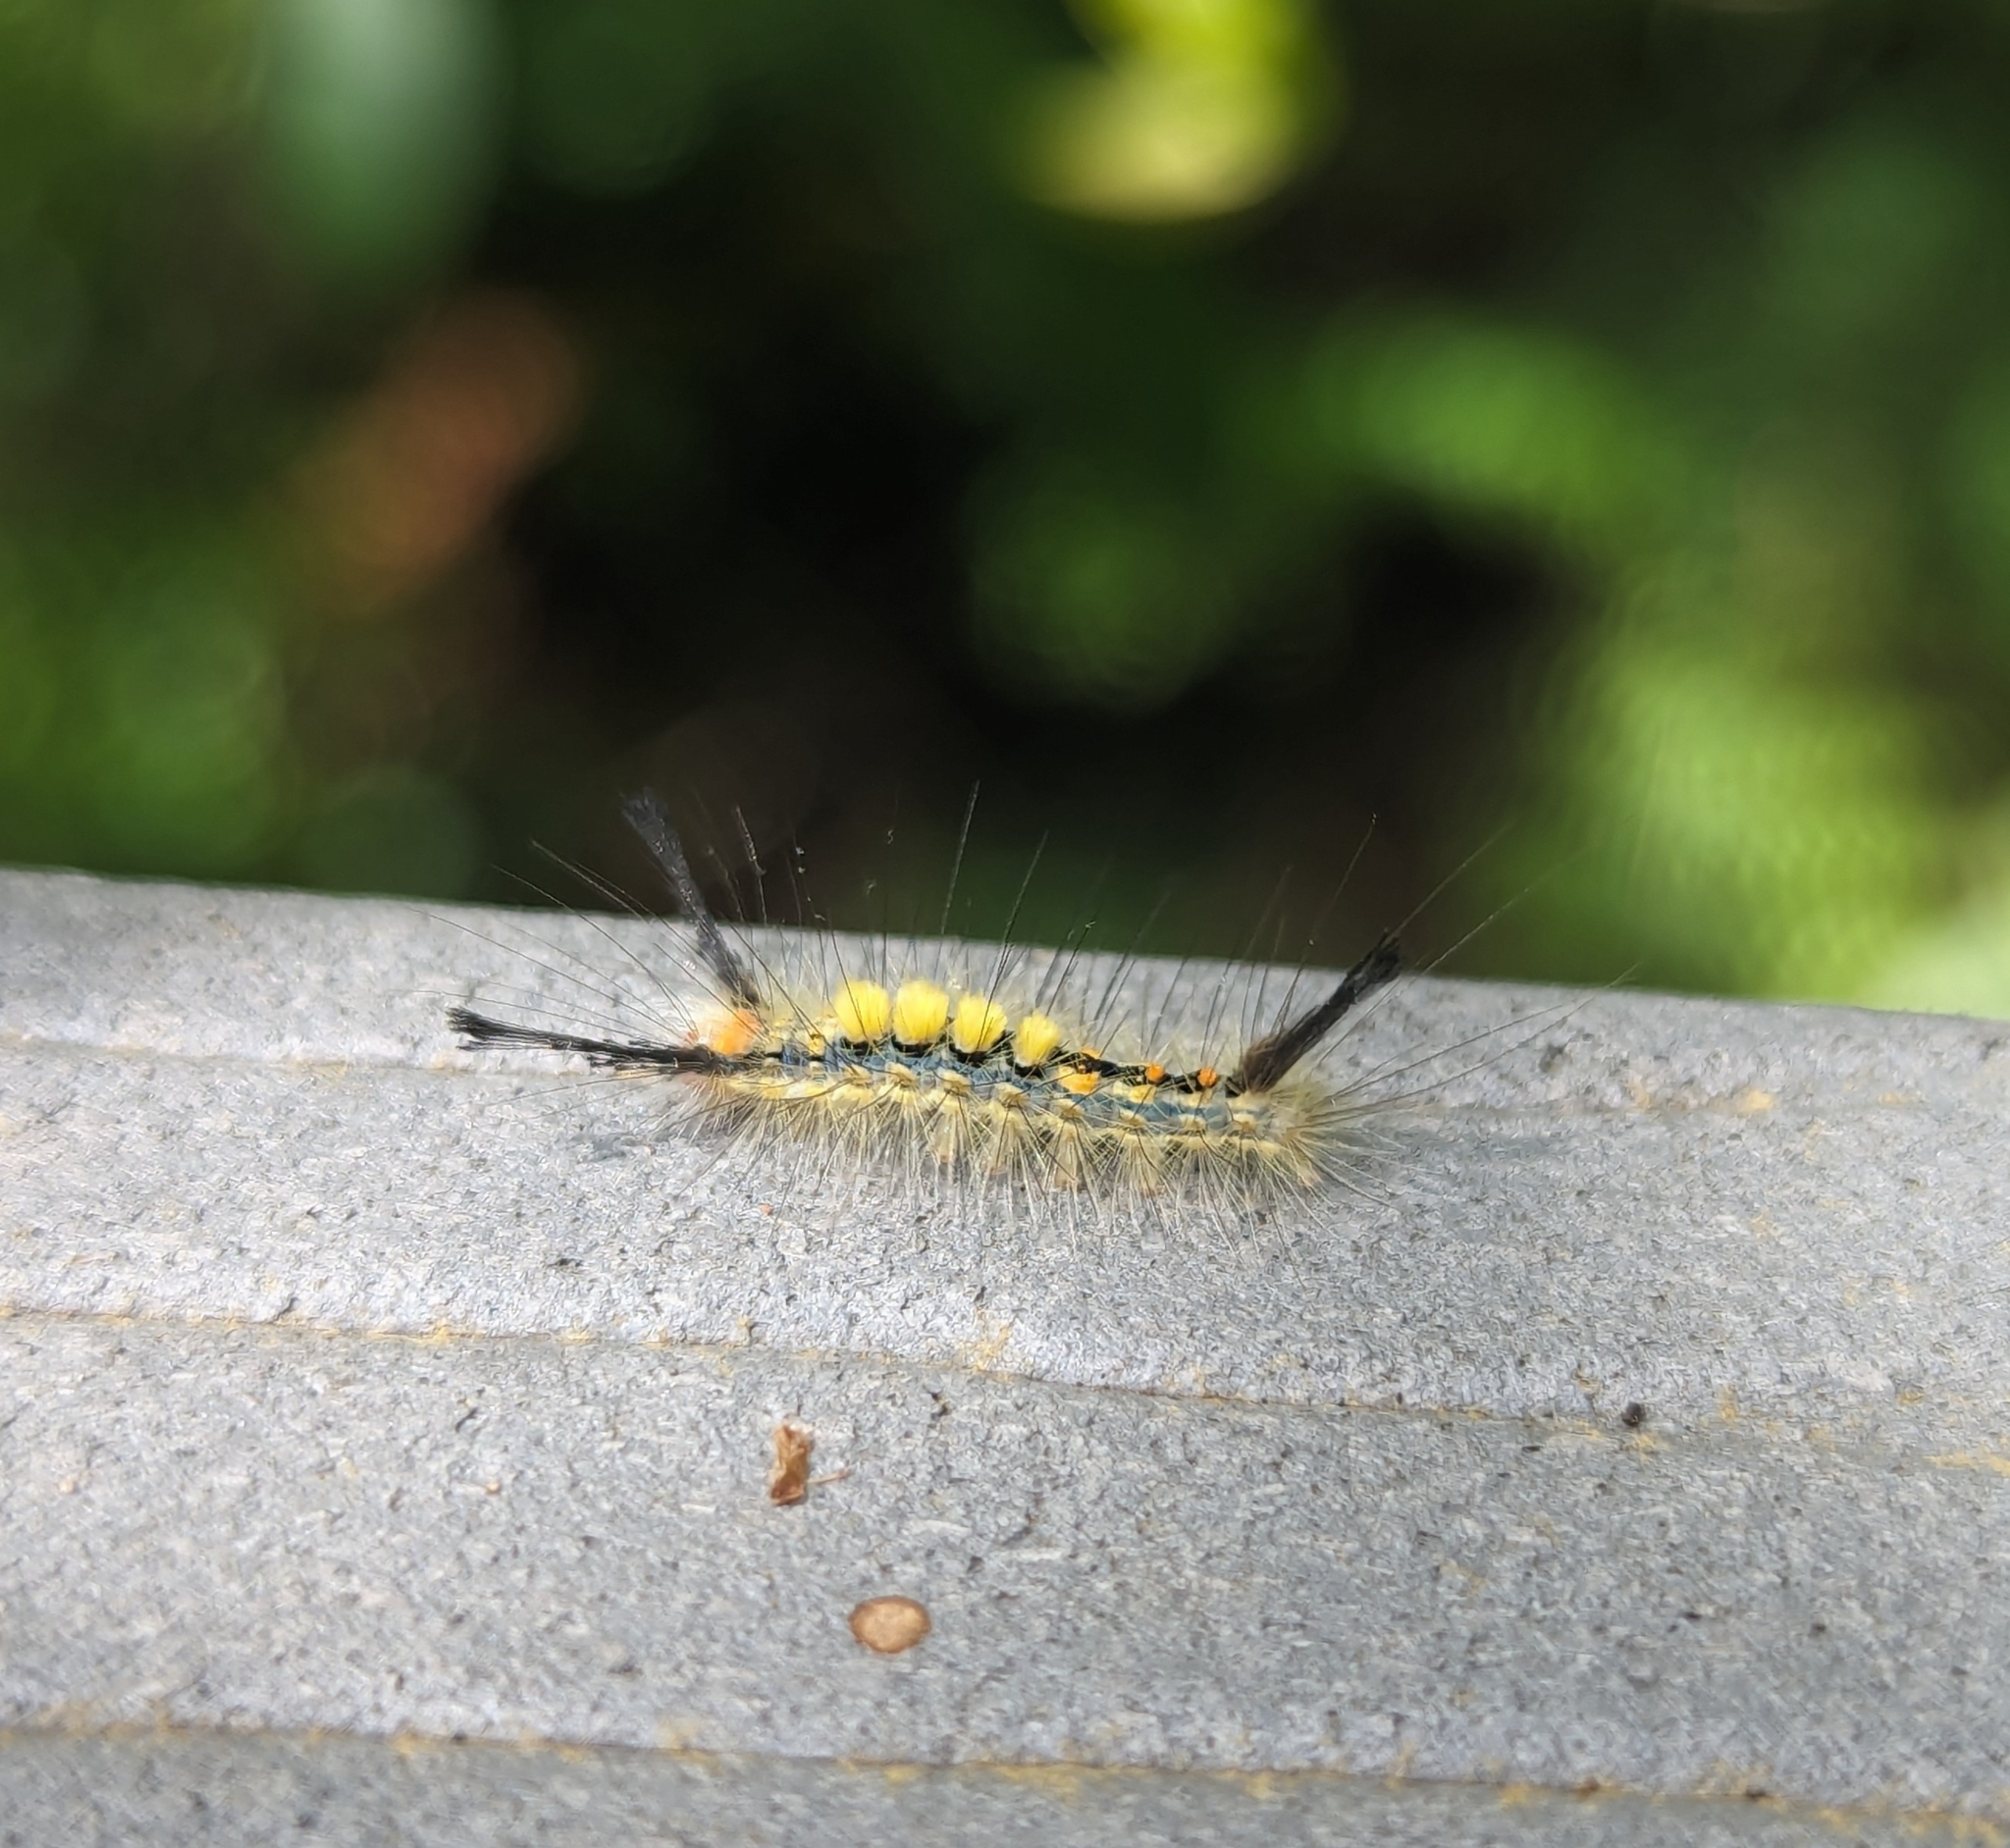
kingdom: Animalia
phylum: Arthropoda
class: Insecta
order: Lepidoptera
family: Erebidae
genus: Orgyia
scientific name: Orgyia detrita
